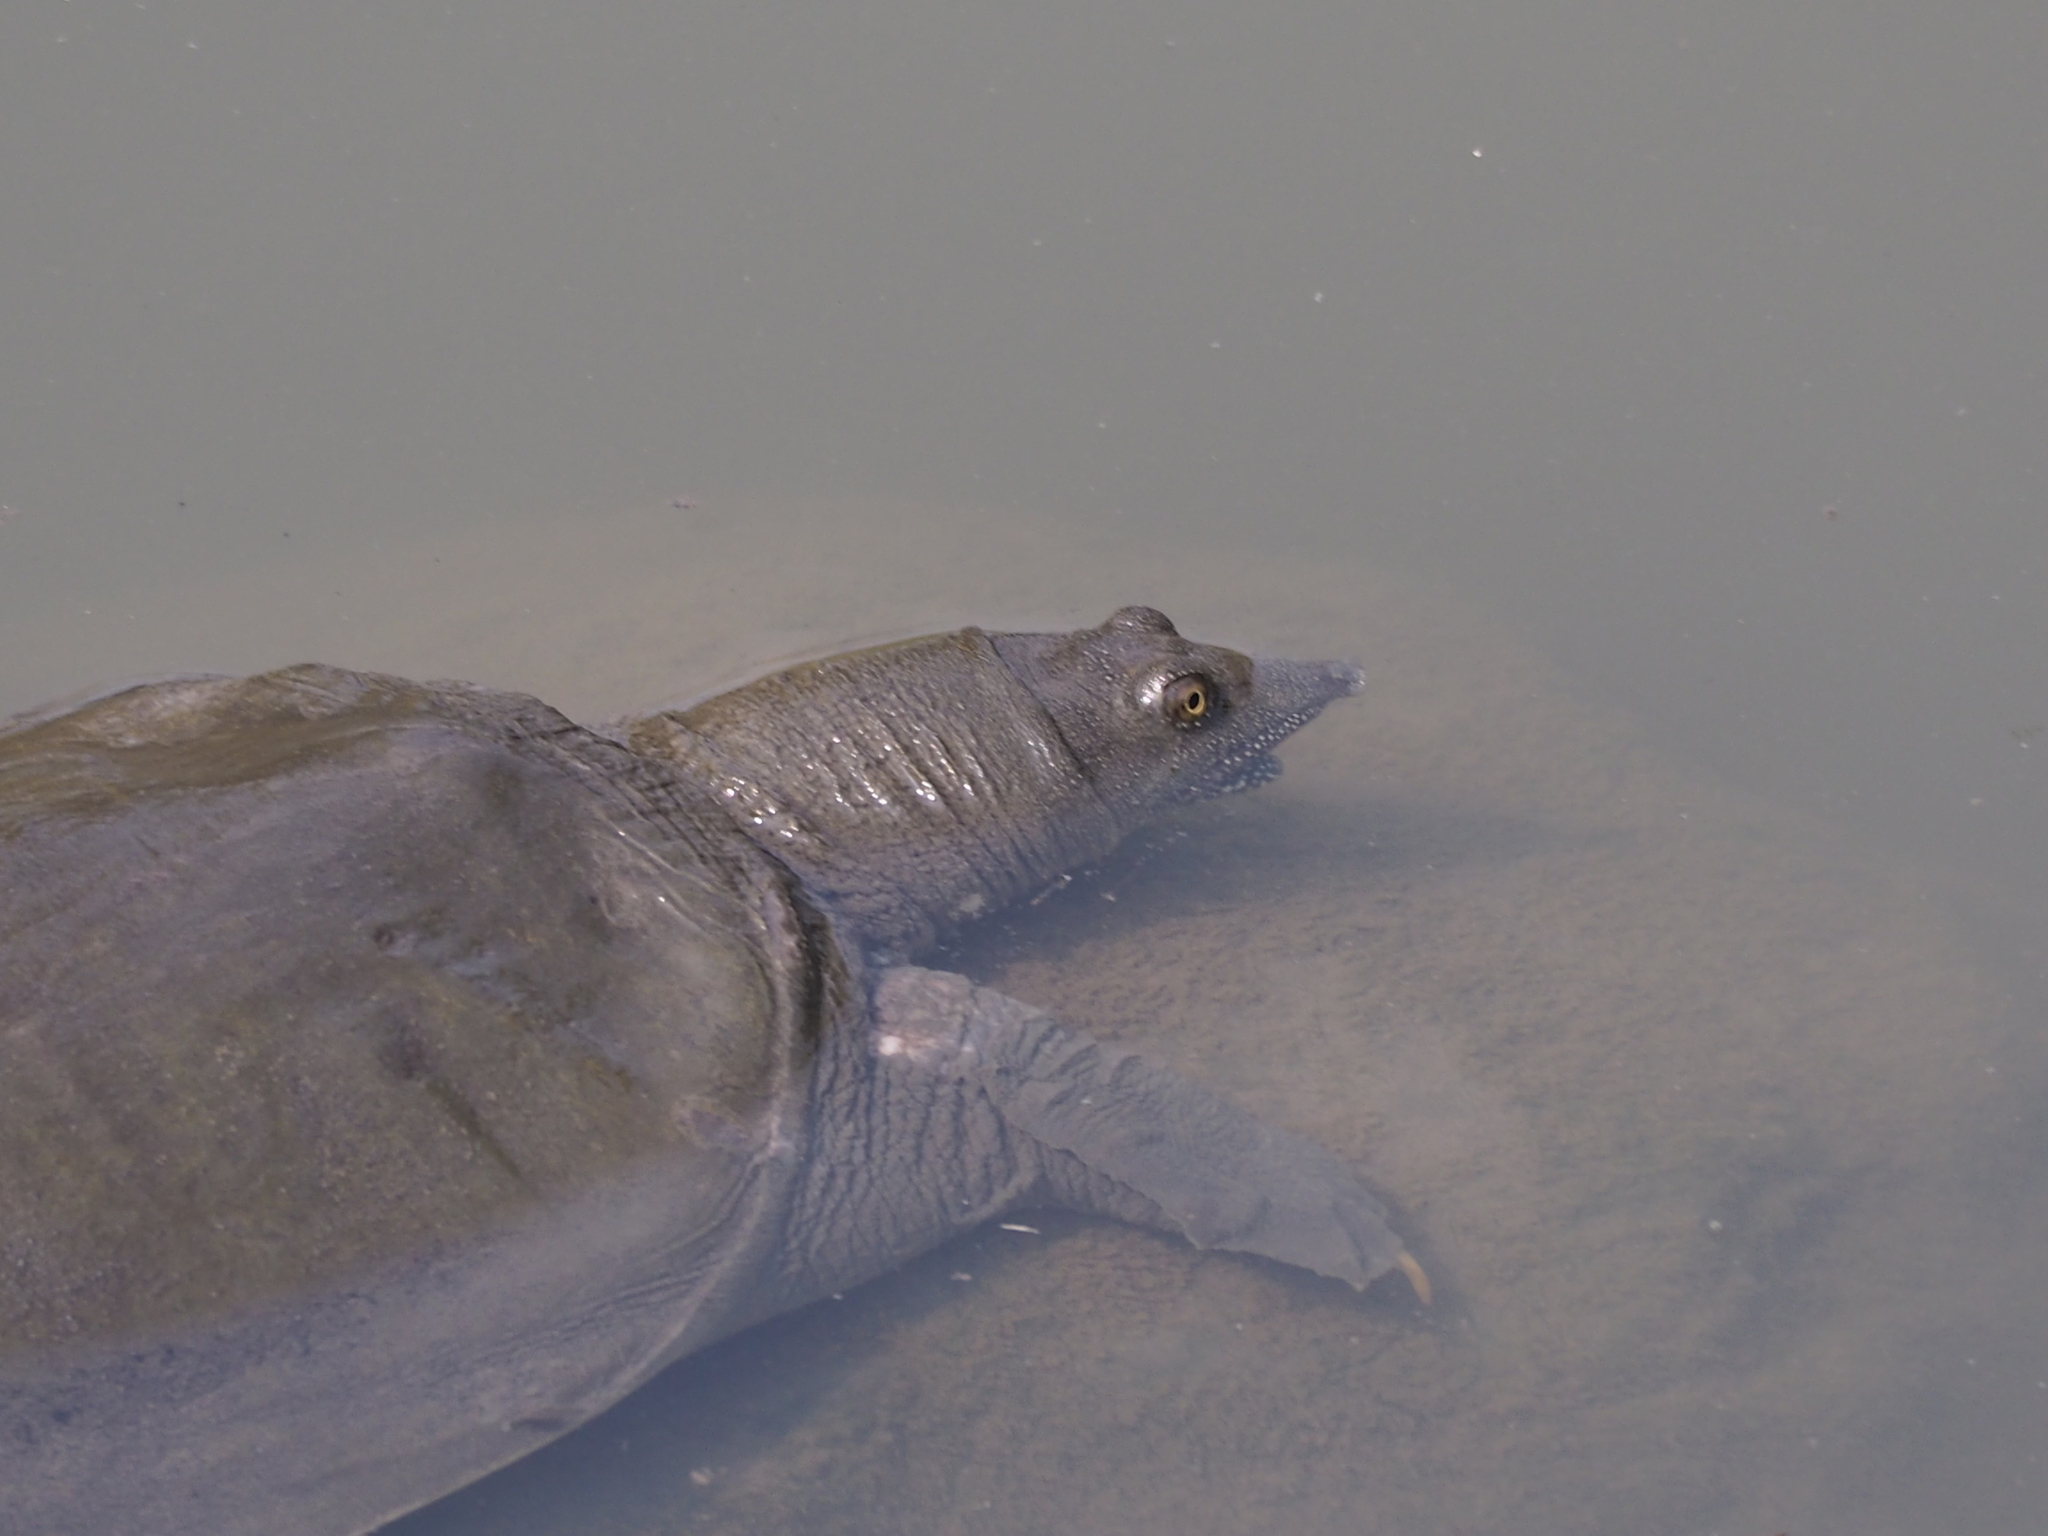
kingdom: Animalia
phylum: Chordata
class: Testudines
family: Trionychidae
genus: Pelodiscus
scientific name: Pelodiscus sinensis
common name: Chinese softshell turtle
